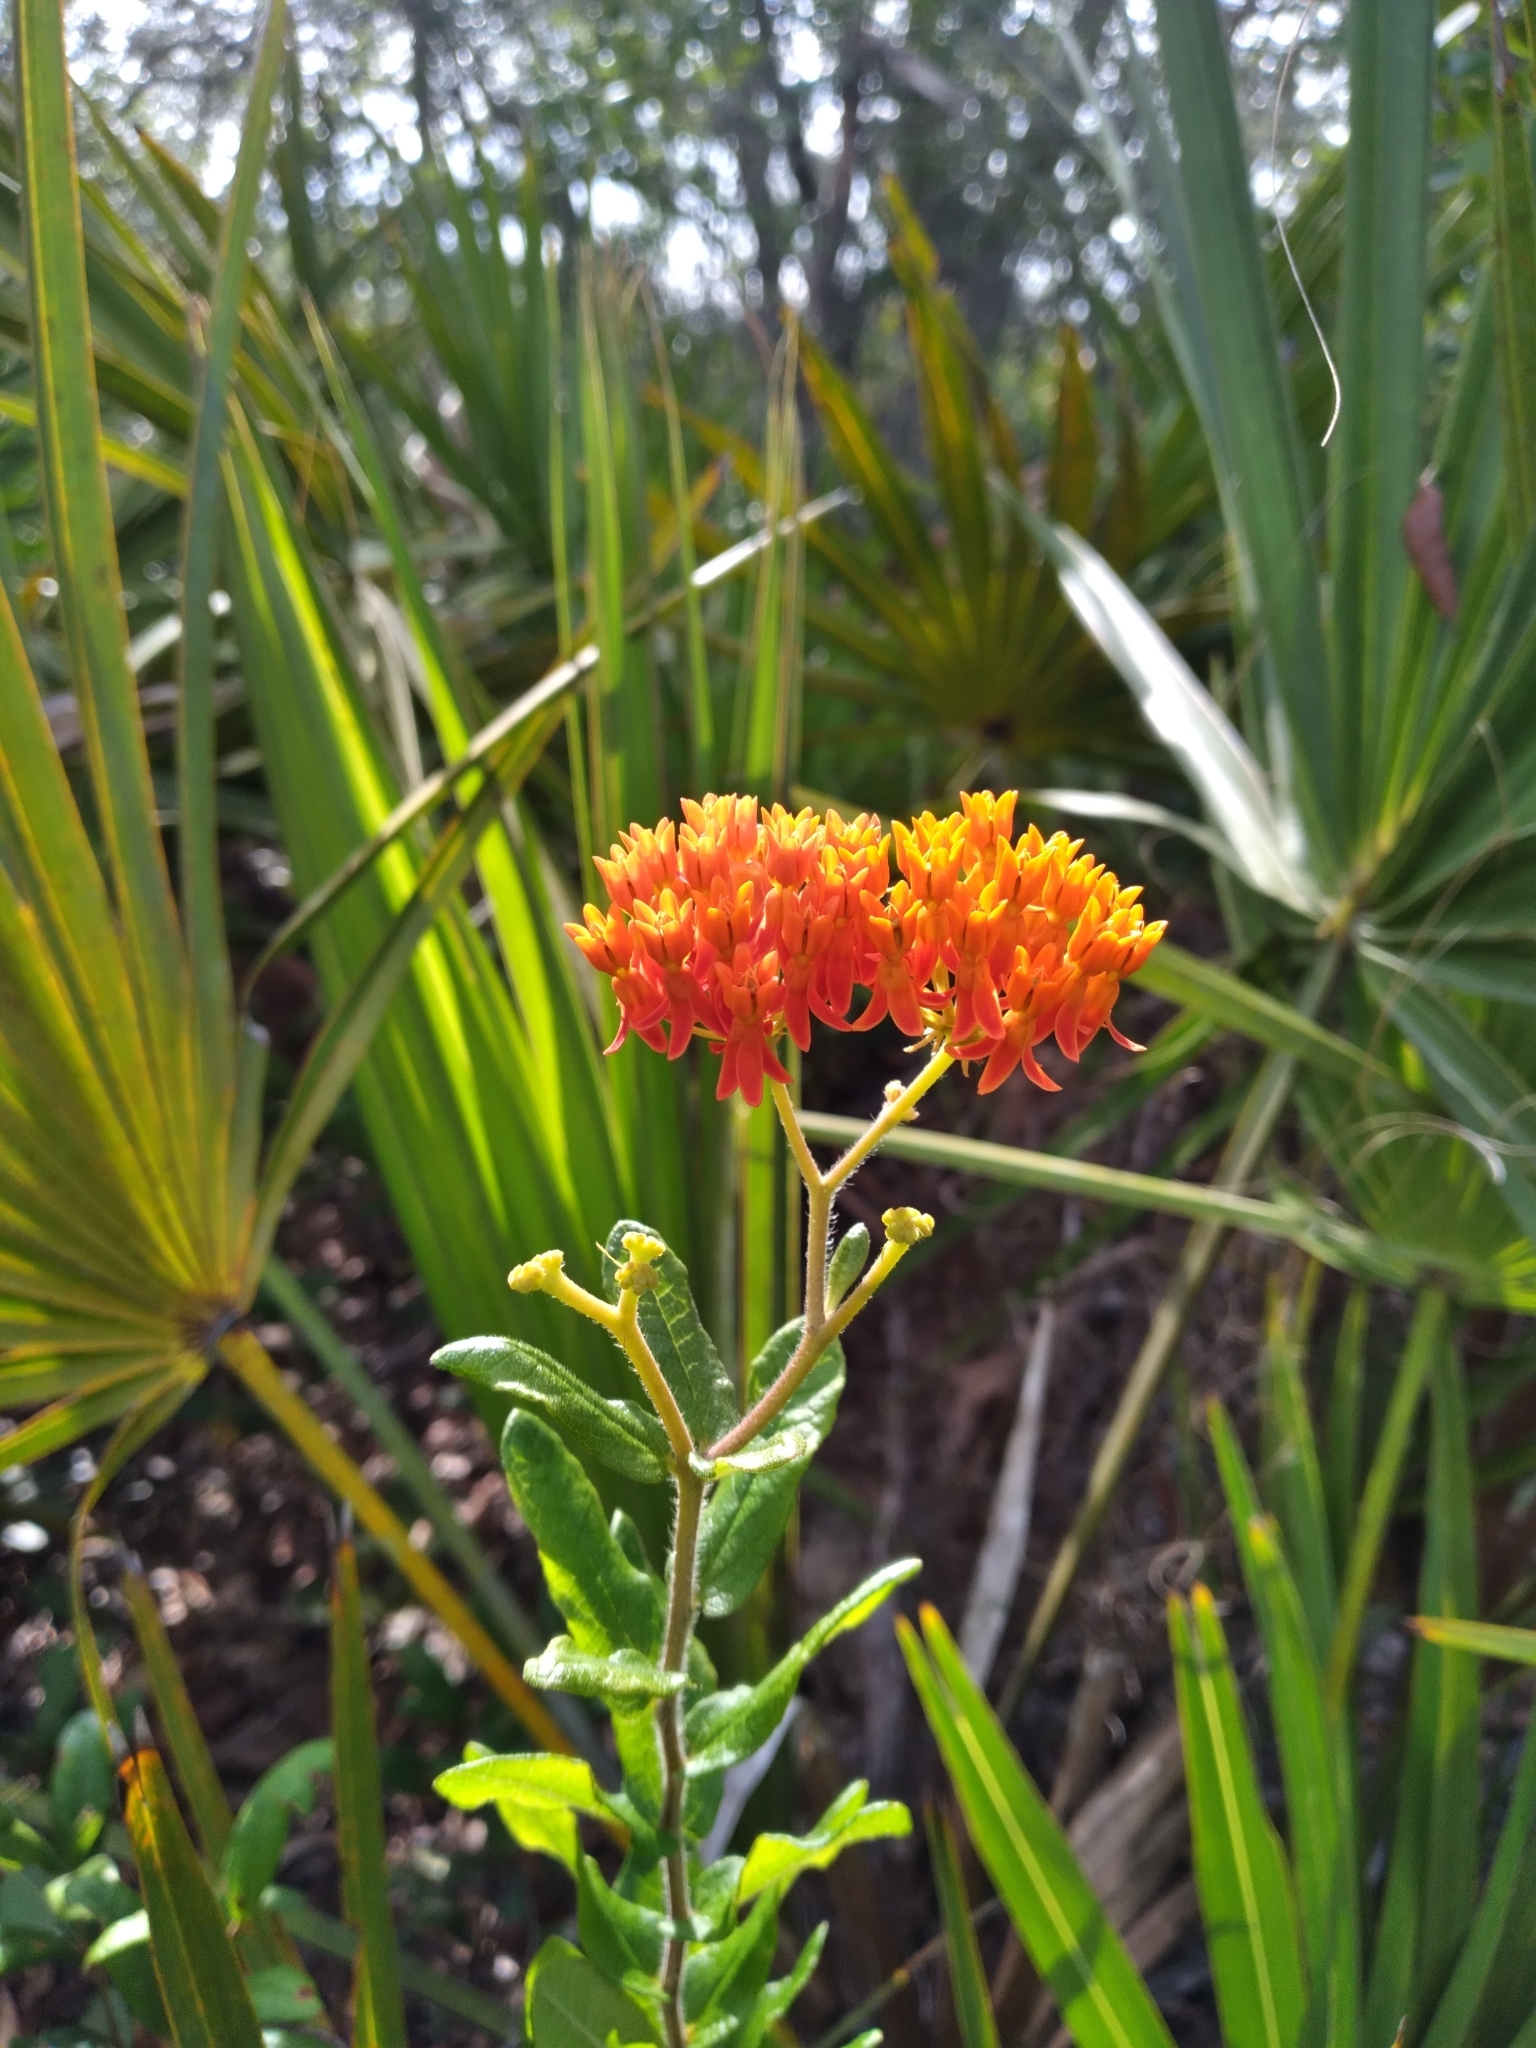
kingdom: Plantae
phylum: Tracheophyta
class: Magnoliopsida
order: Gentianales
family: Apocynaceae
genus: Asclepias
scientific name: Asclepias tuberosa
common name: Butterfly milkweed
